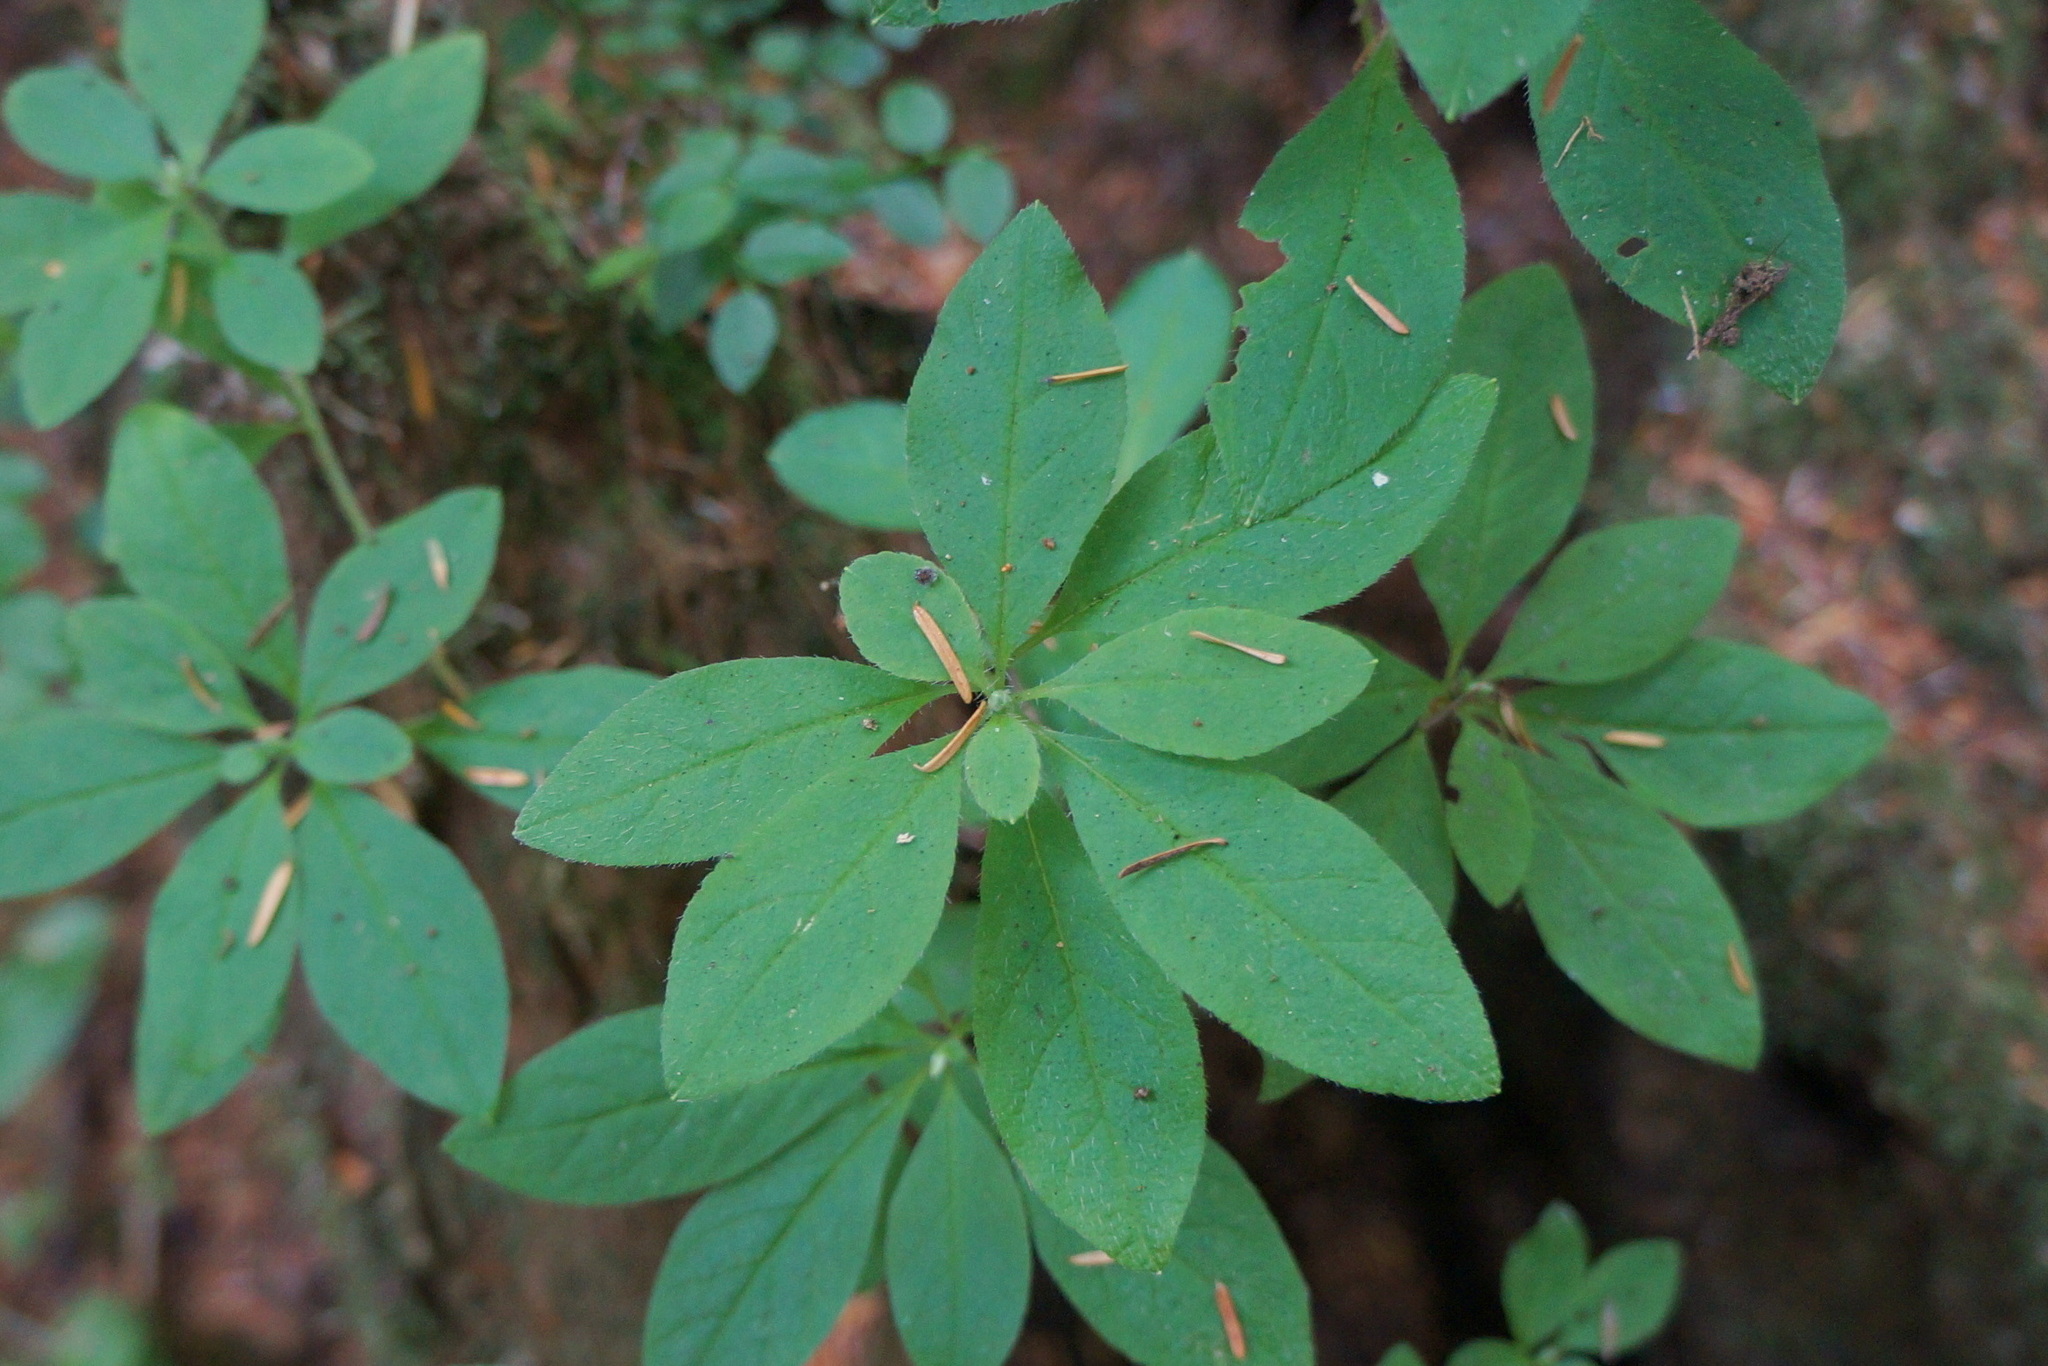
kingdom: Plantae
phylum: Tracheophyta
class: Magnoliopsida
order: Ericales
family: Ericaceae
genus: Rhododendron
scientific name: Rhododendron menziesii
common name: Pacific menziesia
